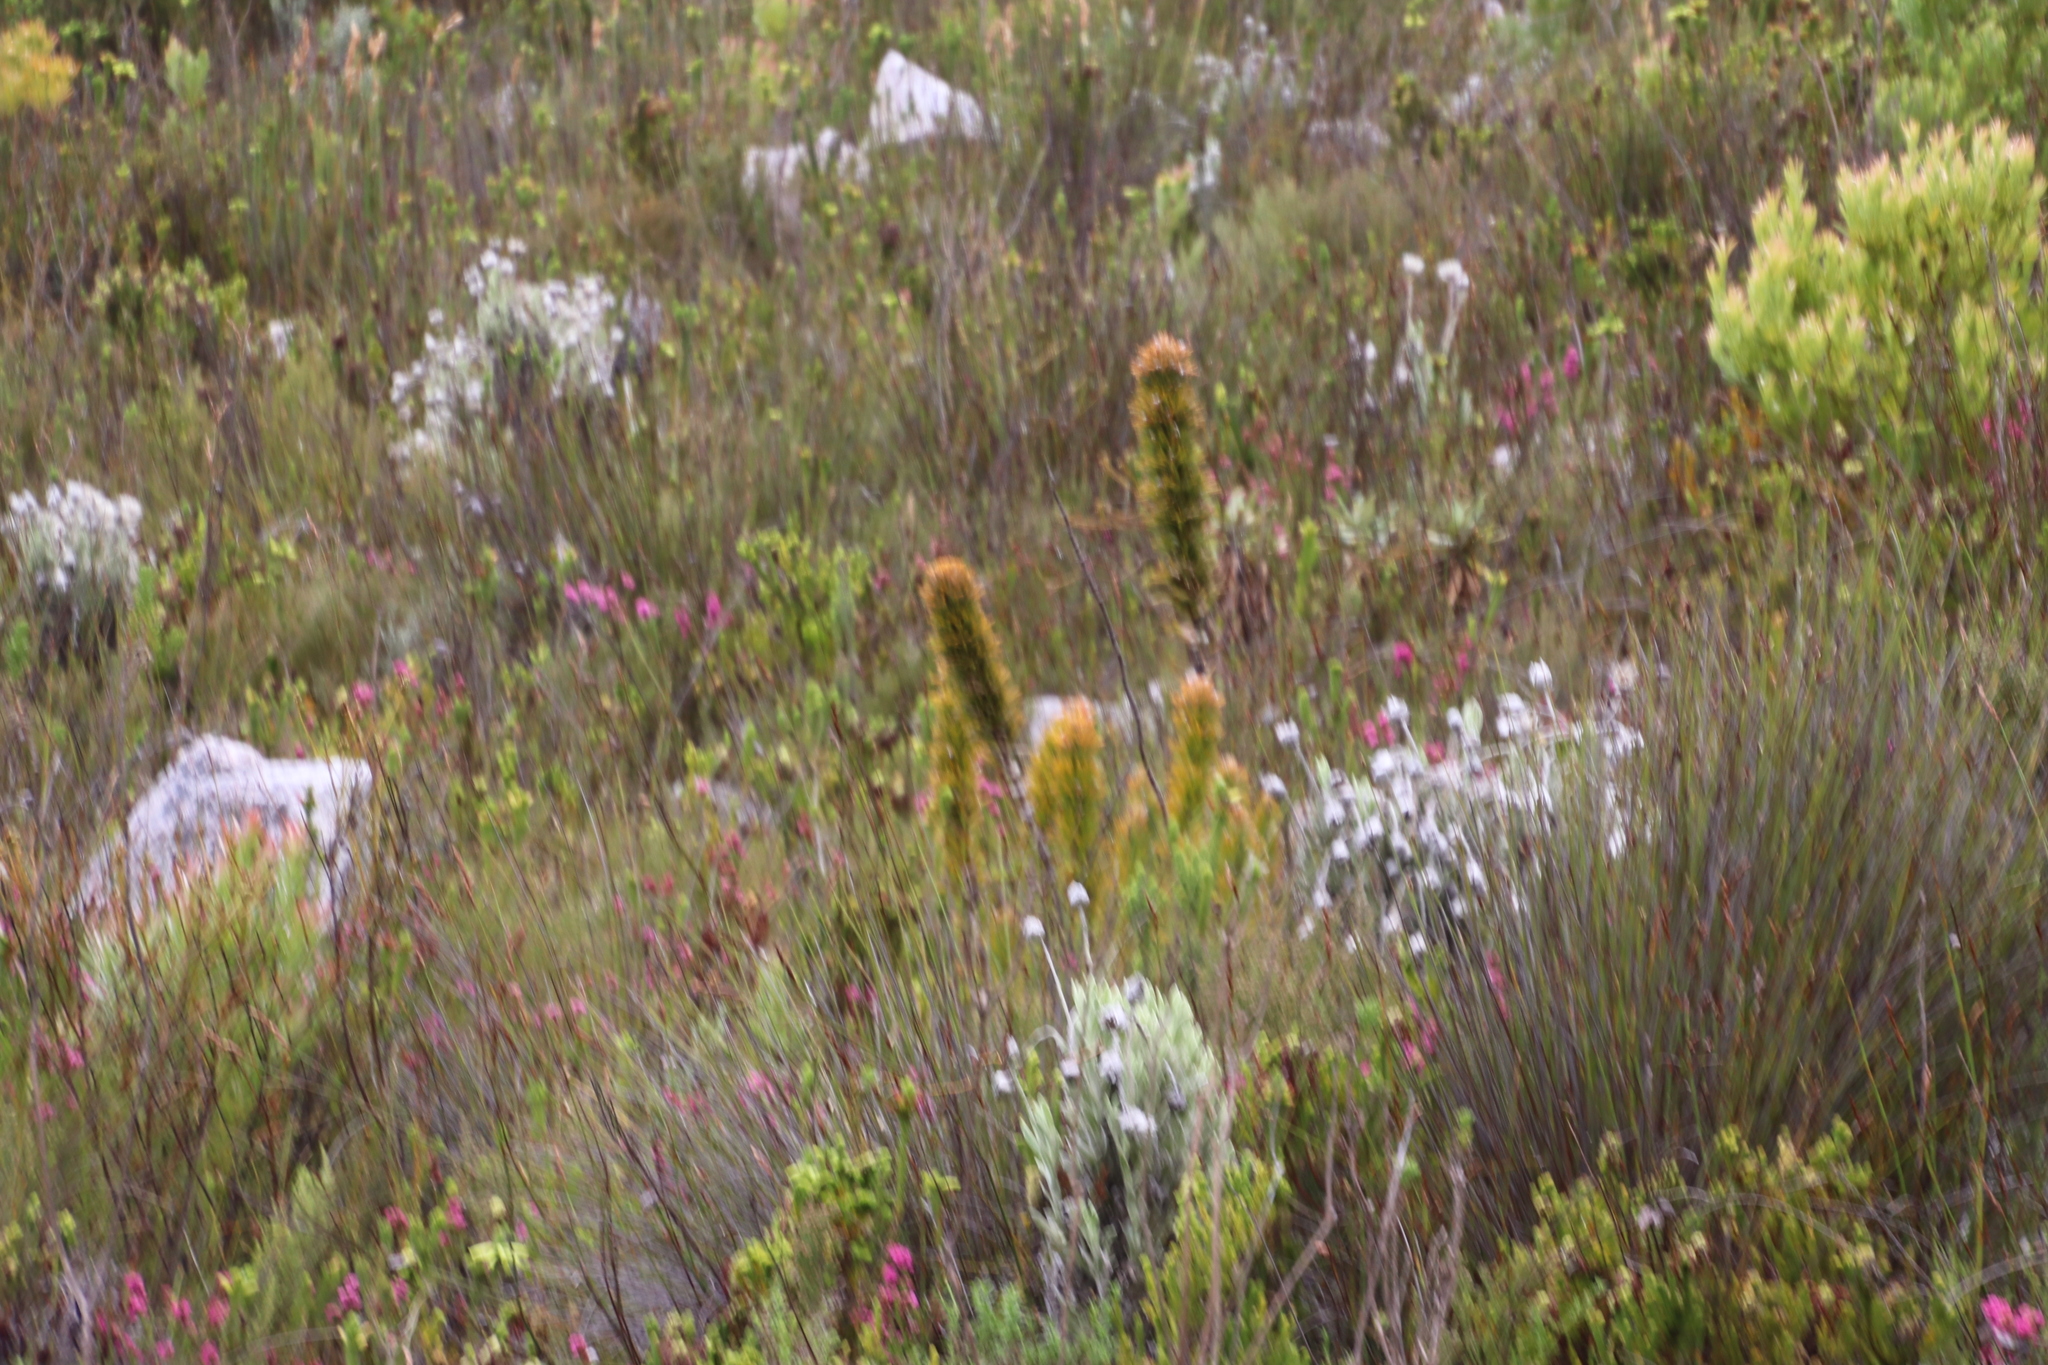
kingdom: Plantae
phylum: Tracheophyta
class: Magnoliopsida
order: Lamiales
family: Stilbaceae
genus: Retzia
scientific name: Retzia capensis
